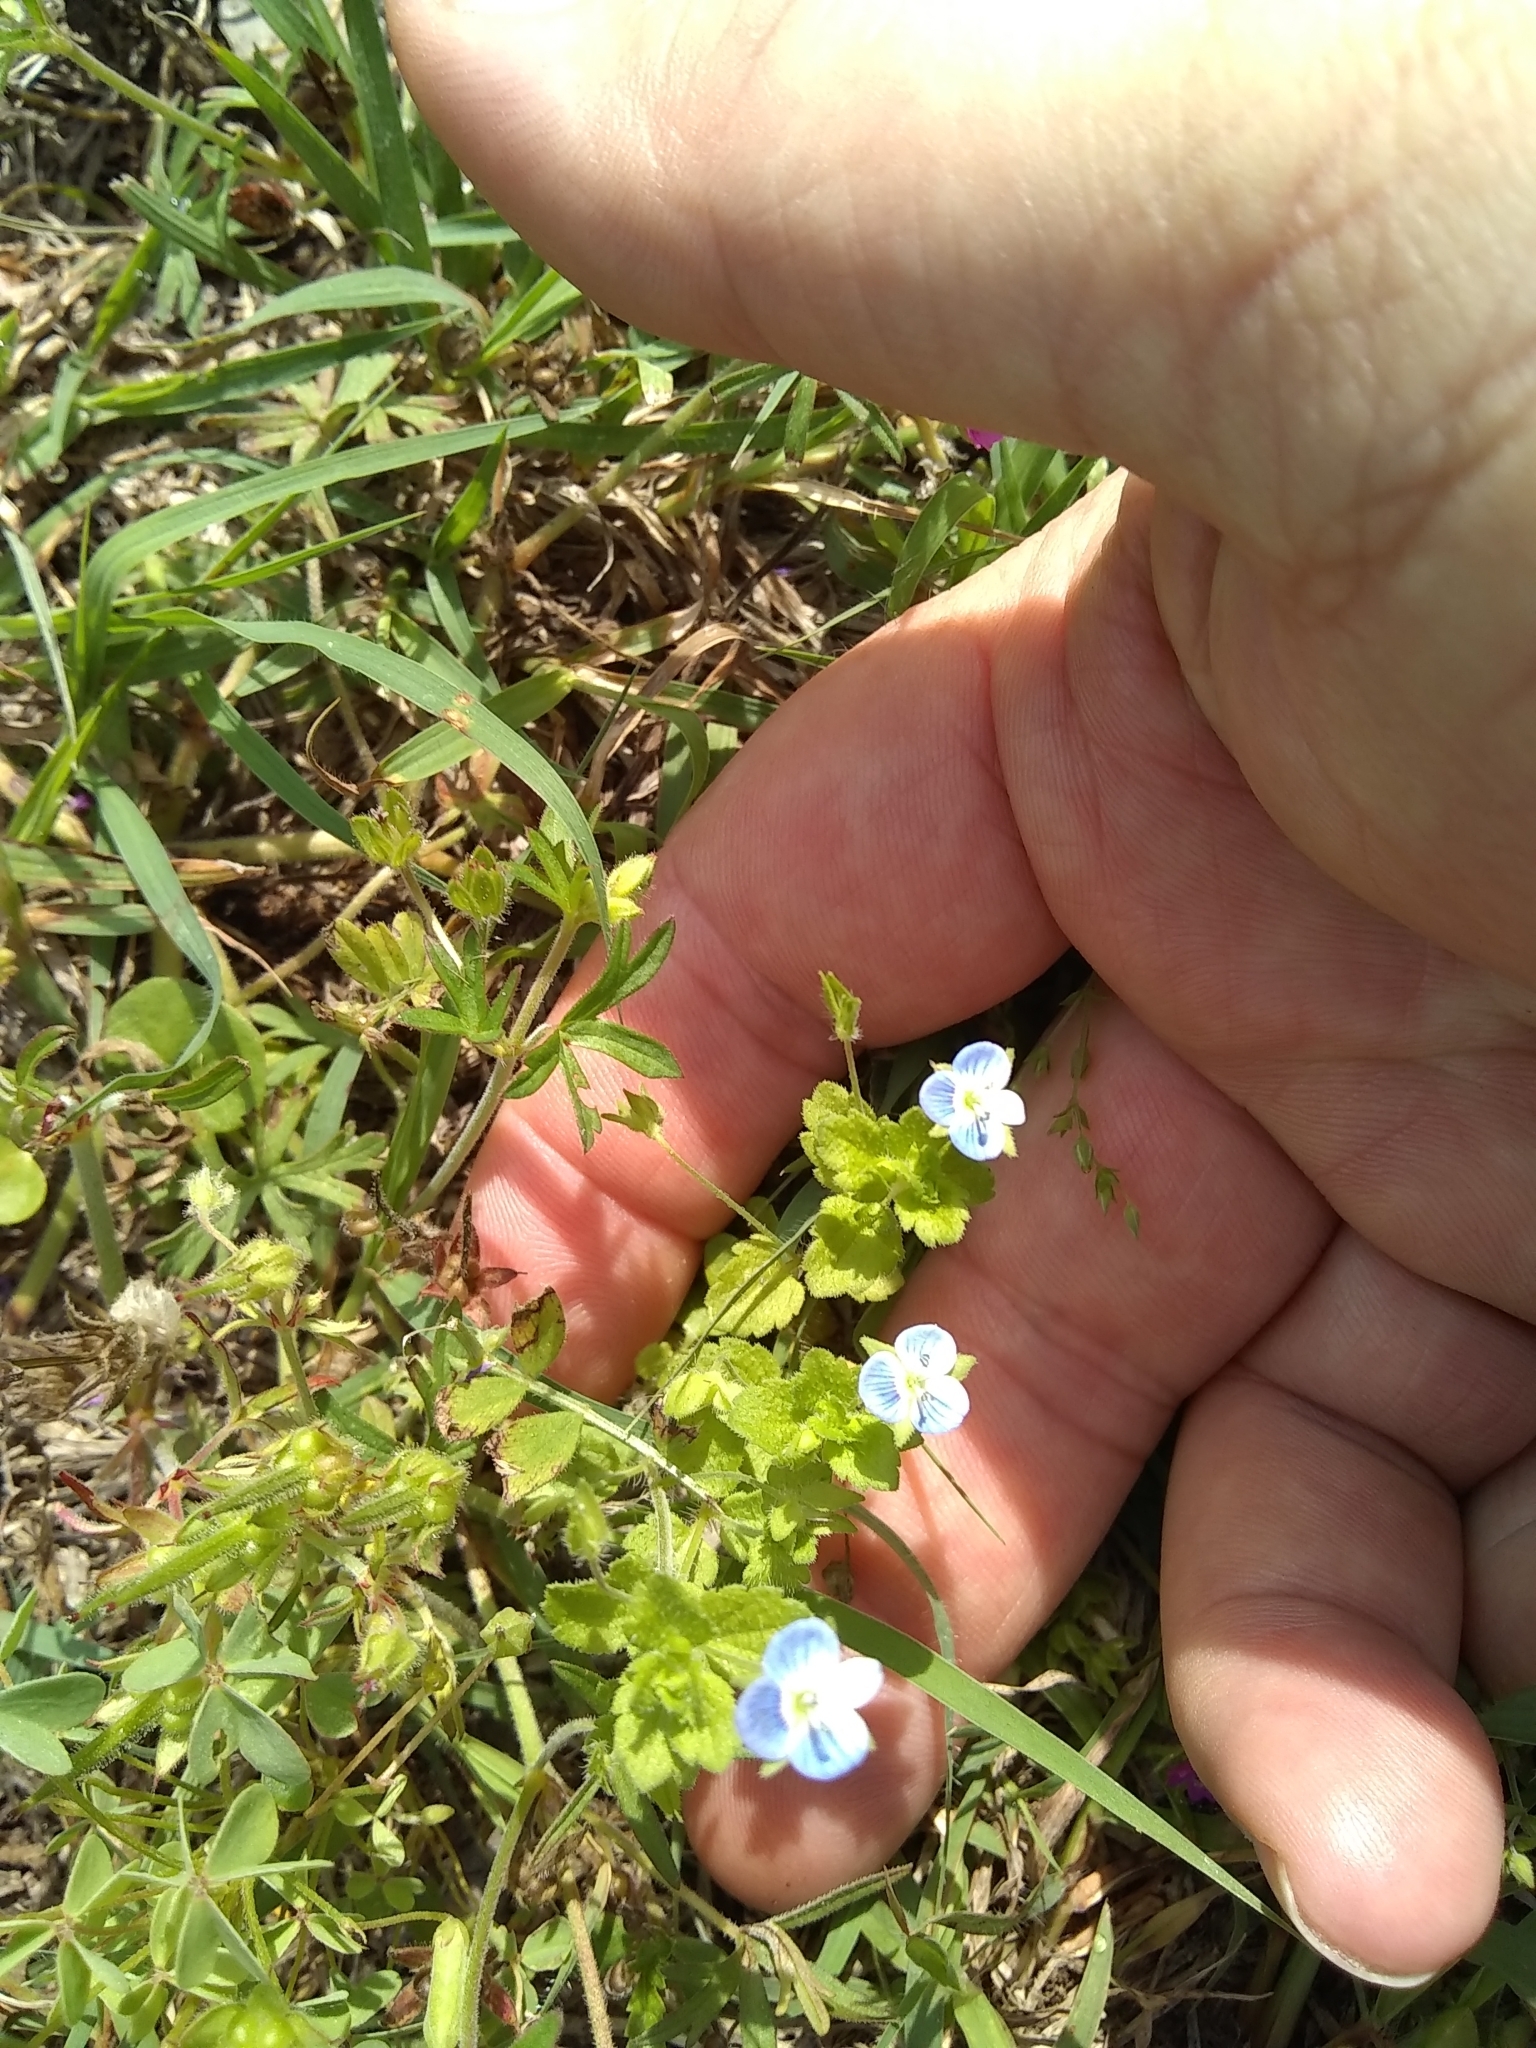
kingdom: Plantae
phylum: Tracheophyta
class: Magnoliopsida
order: Lamiales
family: Plantaginaceae
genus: Veronica
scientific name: Veronica polita
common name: Grey field-speedwell
